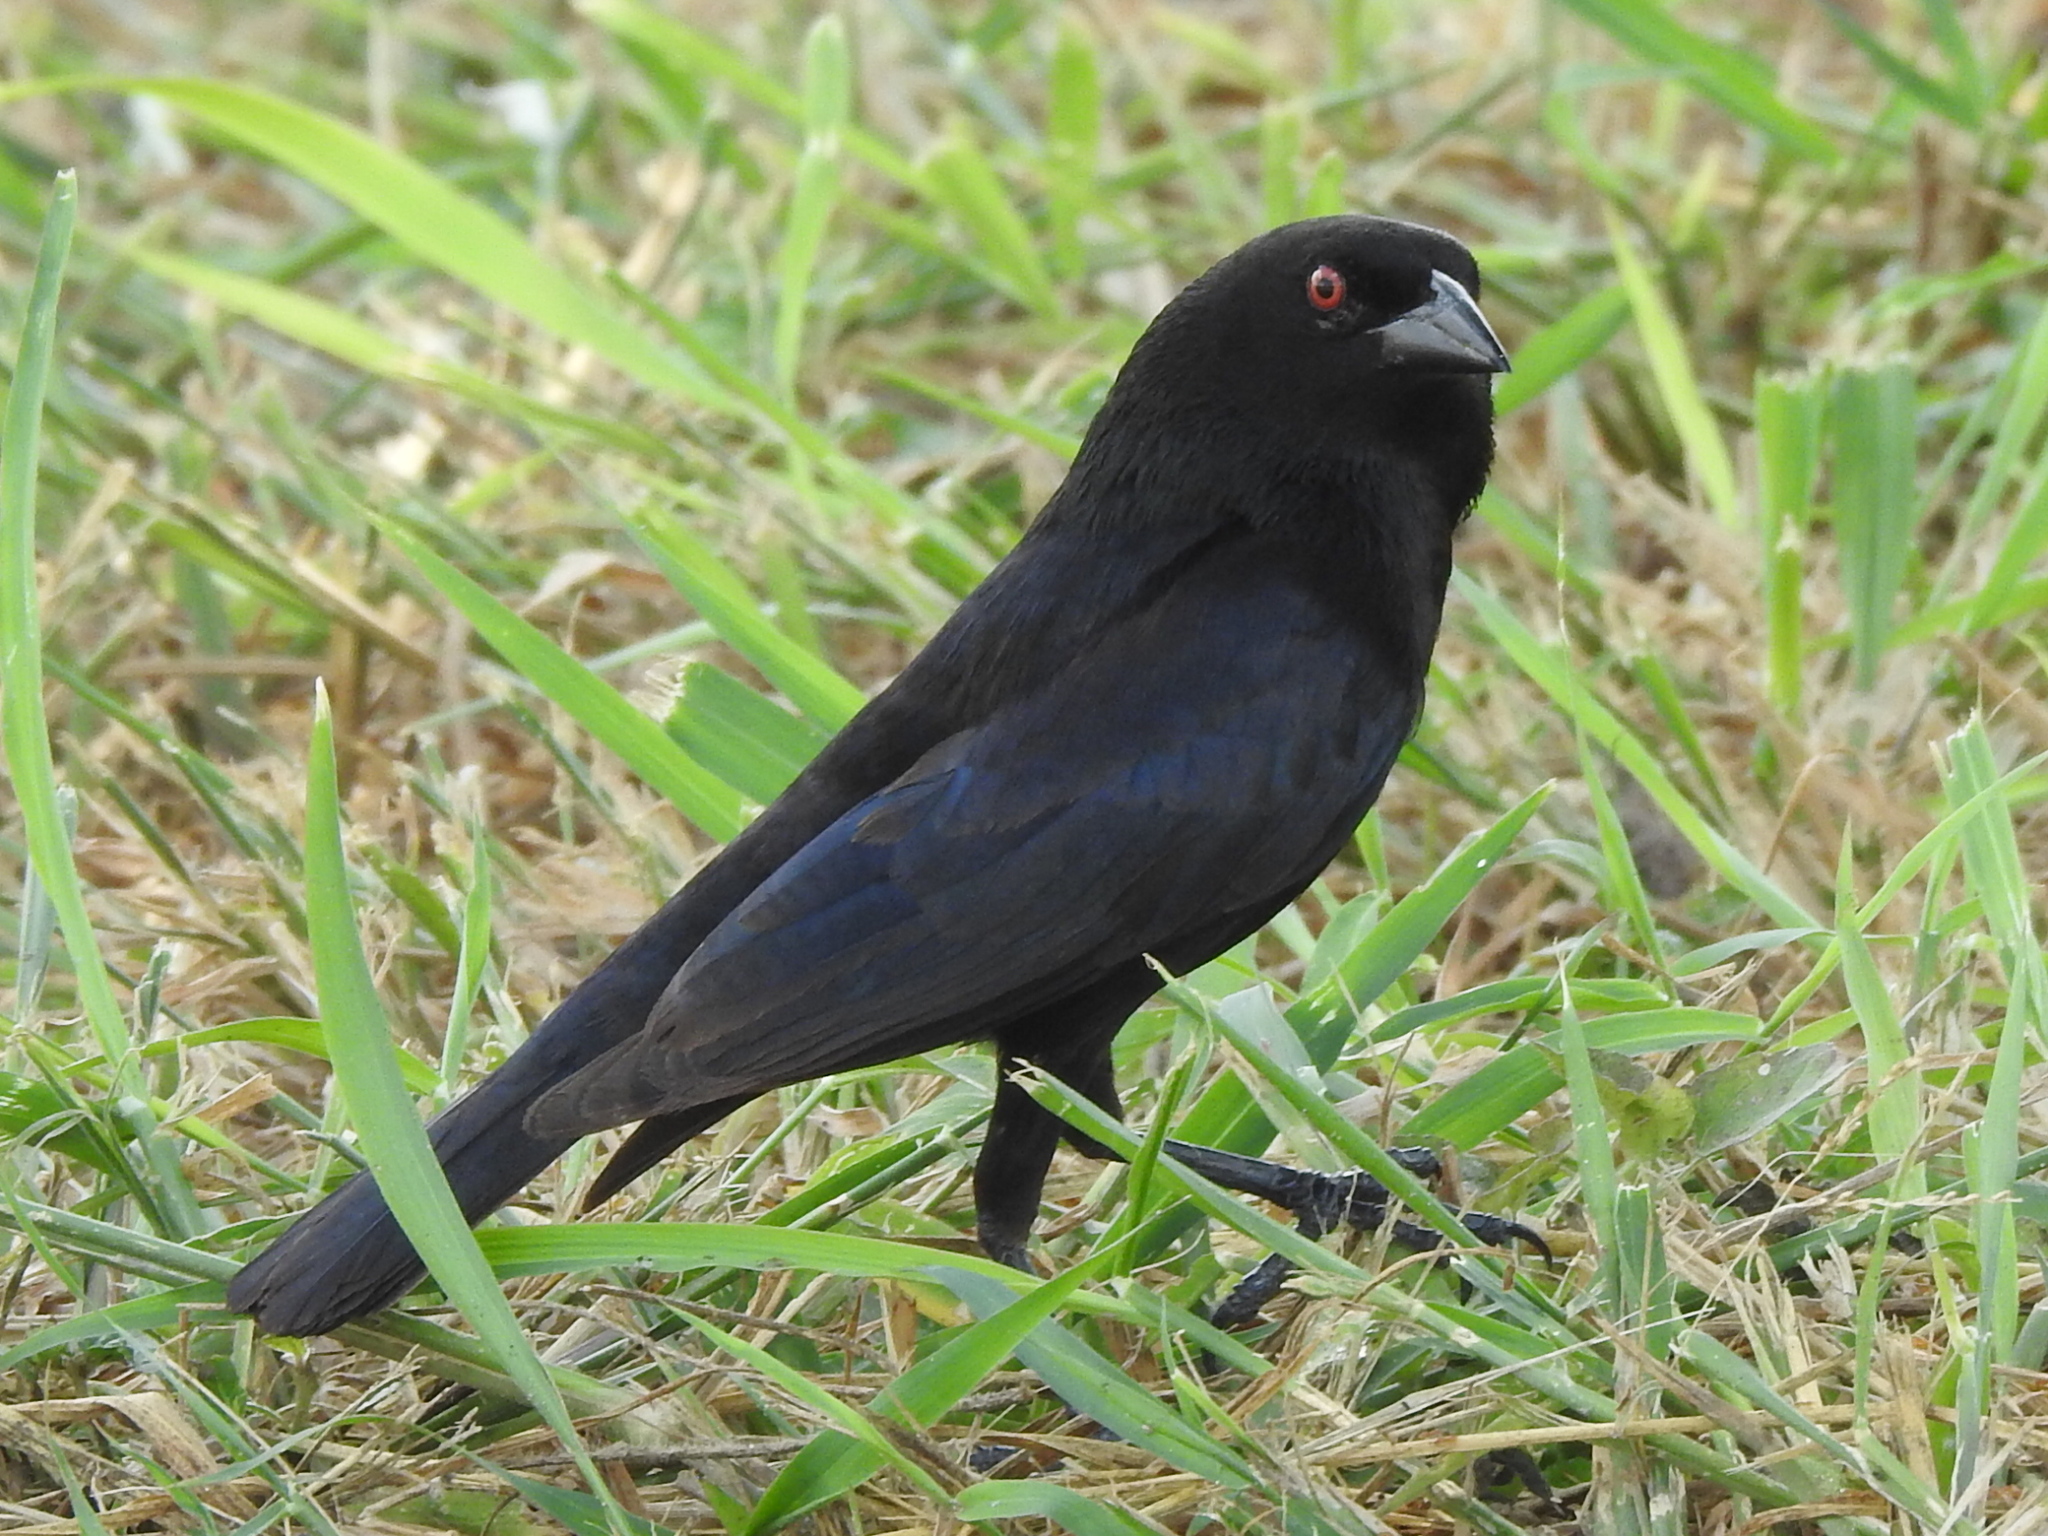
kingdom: Animalia
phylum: Chordata
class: Aves
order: Passeriformes
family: Icteridae
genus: Molothrus
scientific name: Molothrus aeneus
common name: Bronzed cowbird
